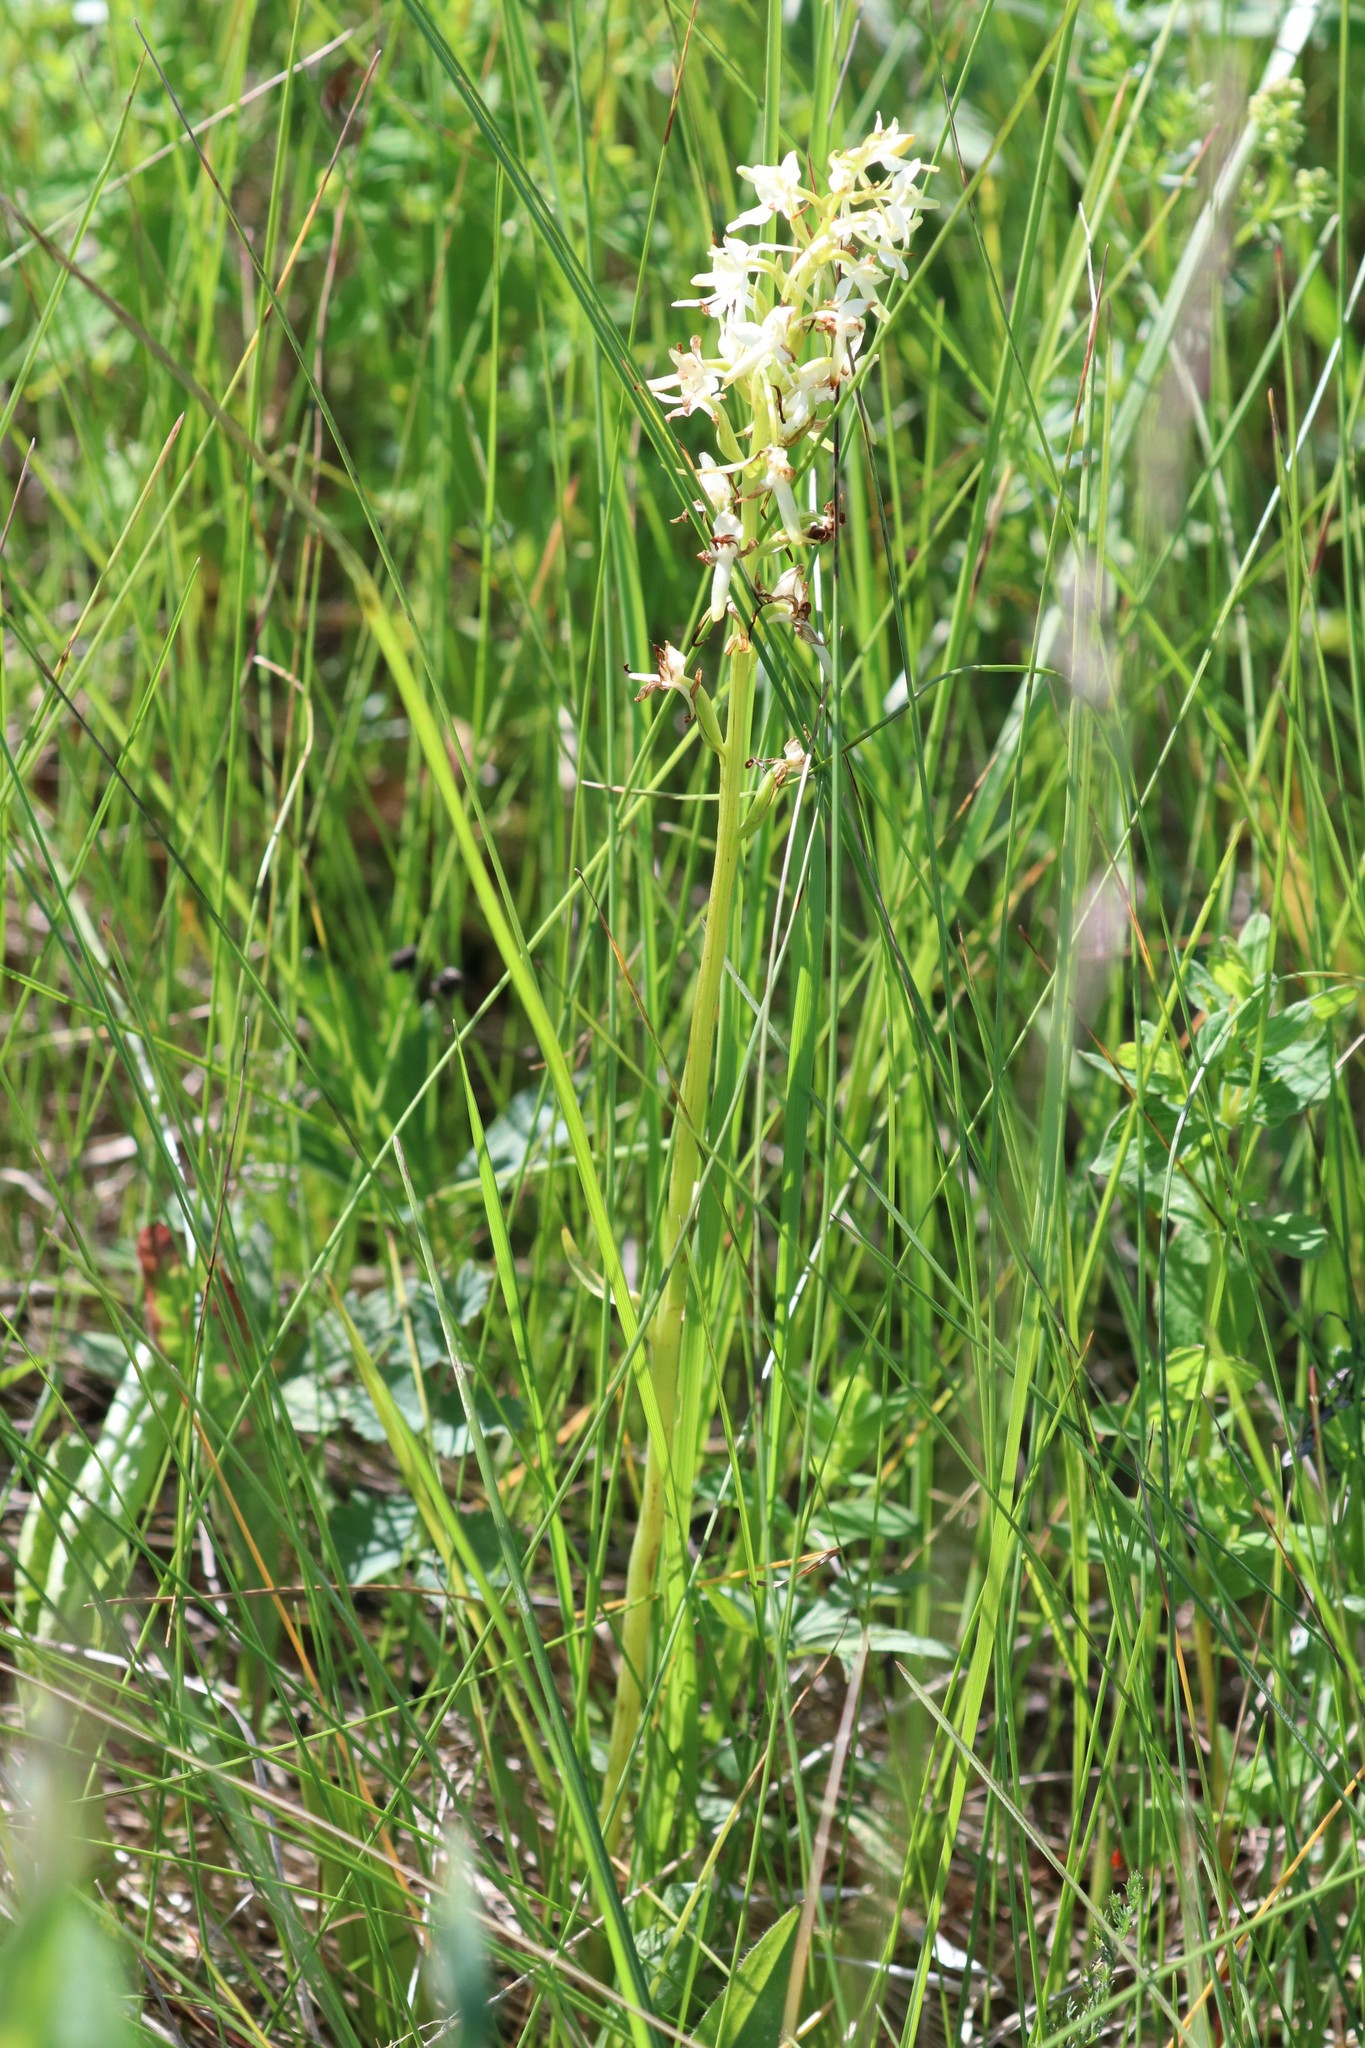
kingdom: Plantae
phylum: Tracheophyta
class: Liliopsida
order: Asparagales
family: Orchidaceae
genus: Platanthera
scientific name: Platanthera bifolia
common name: Lesser butterfly-orchid
